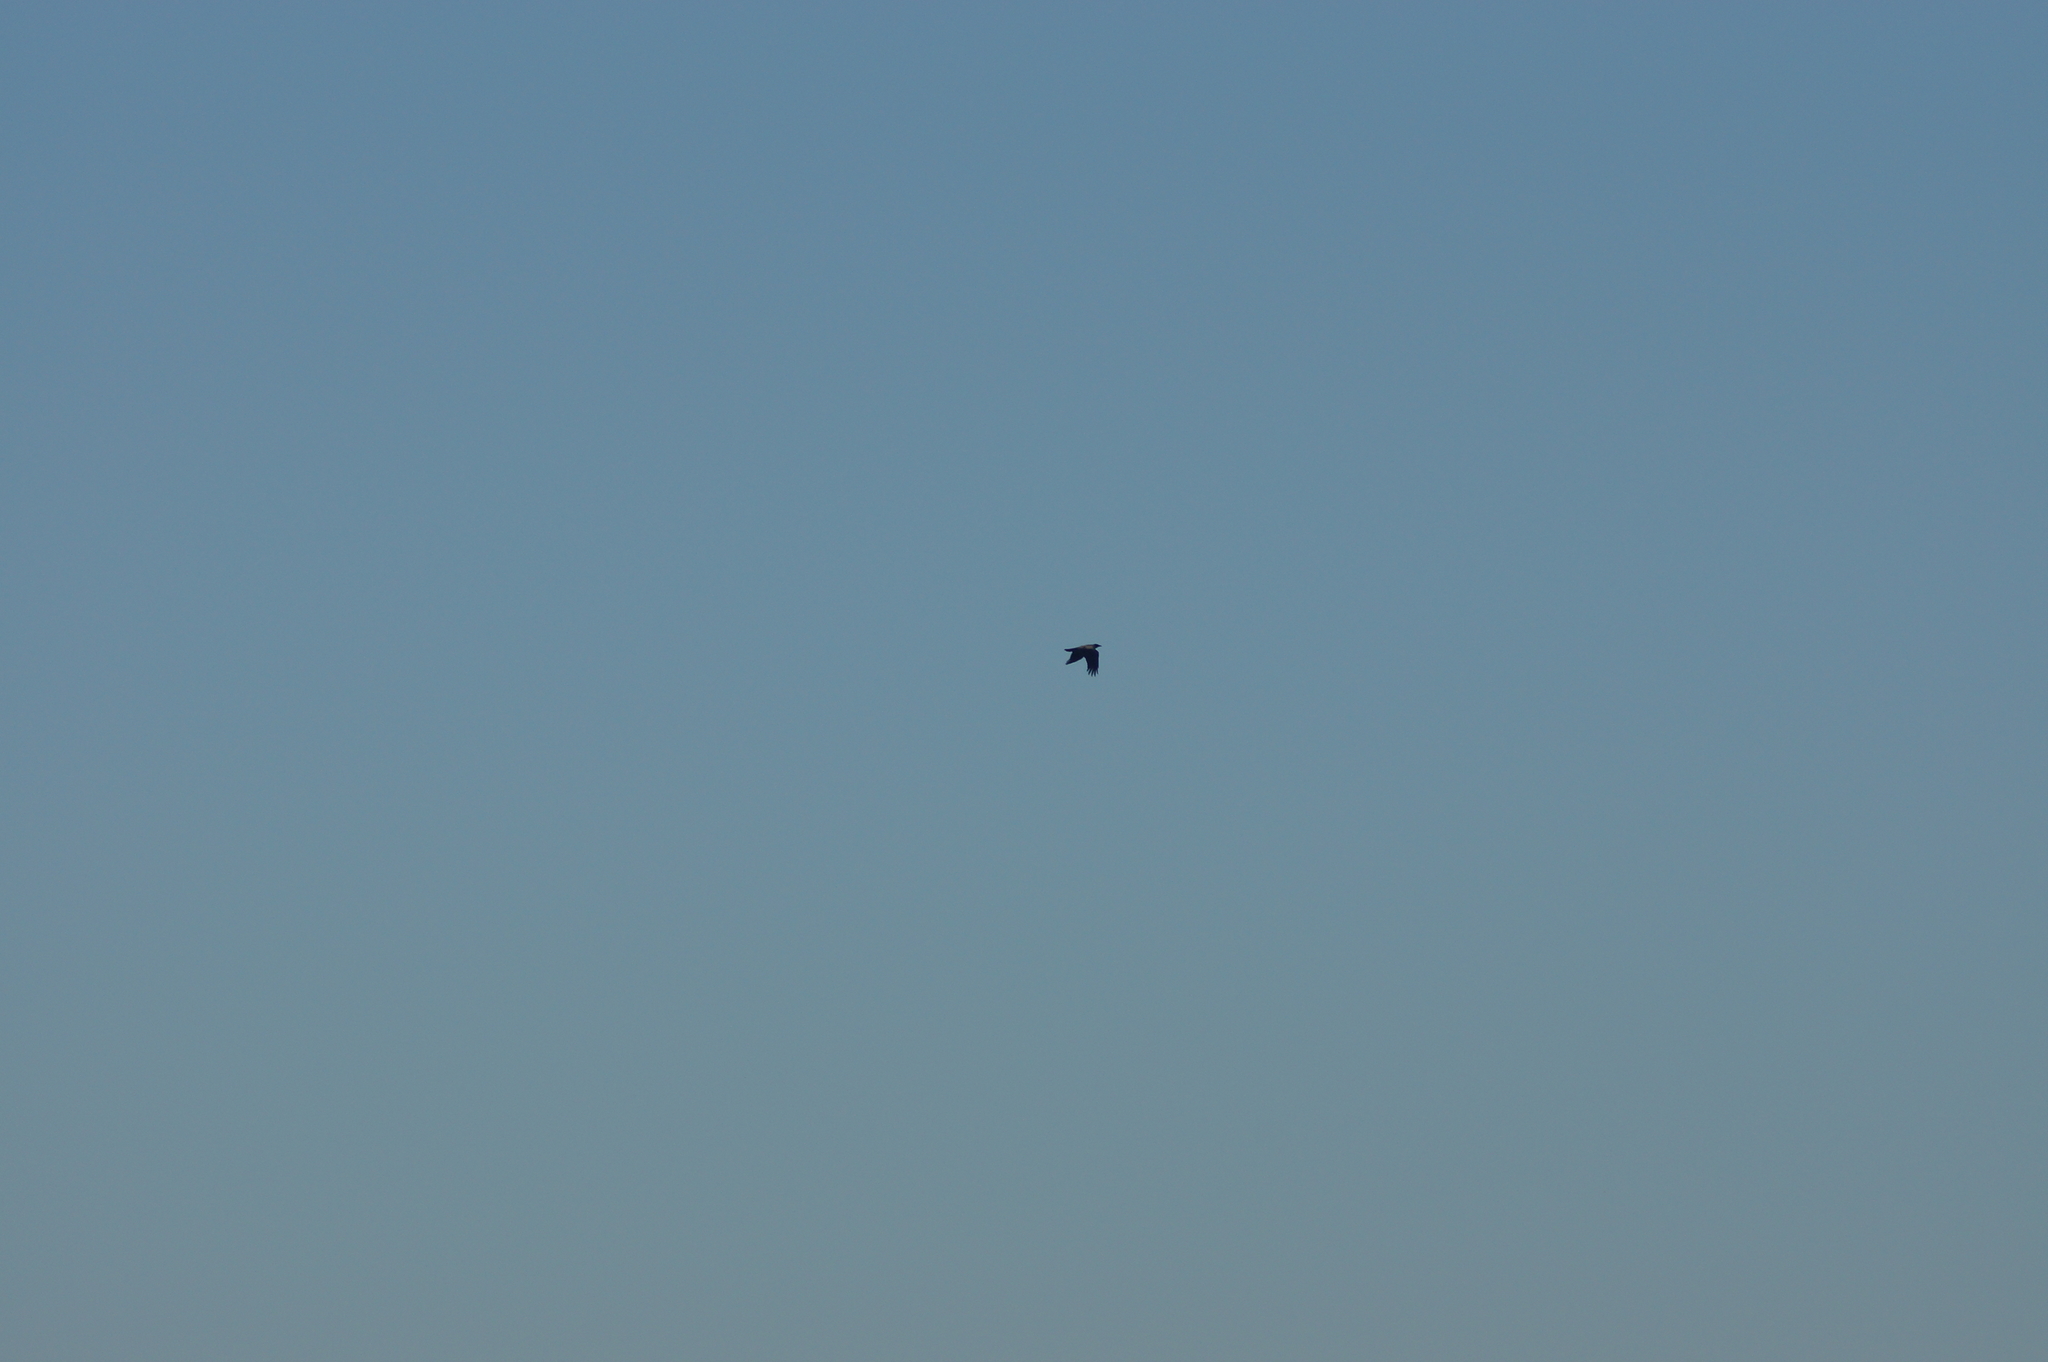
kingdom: Animalia
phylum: Chordata
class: Aves
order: Passeriformes
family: Corvidae
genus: Corvus
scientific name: Corvus cornix
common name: Hooded crow
